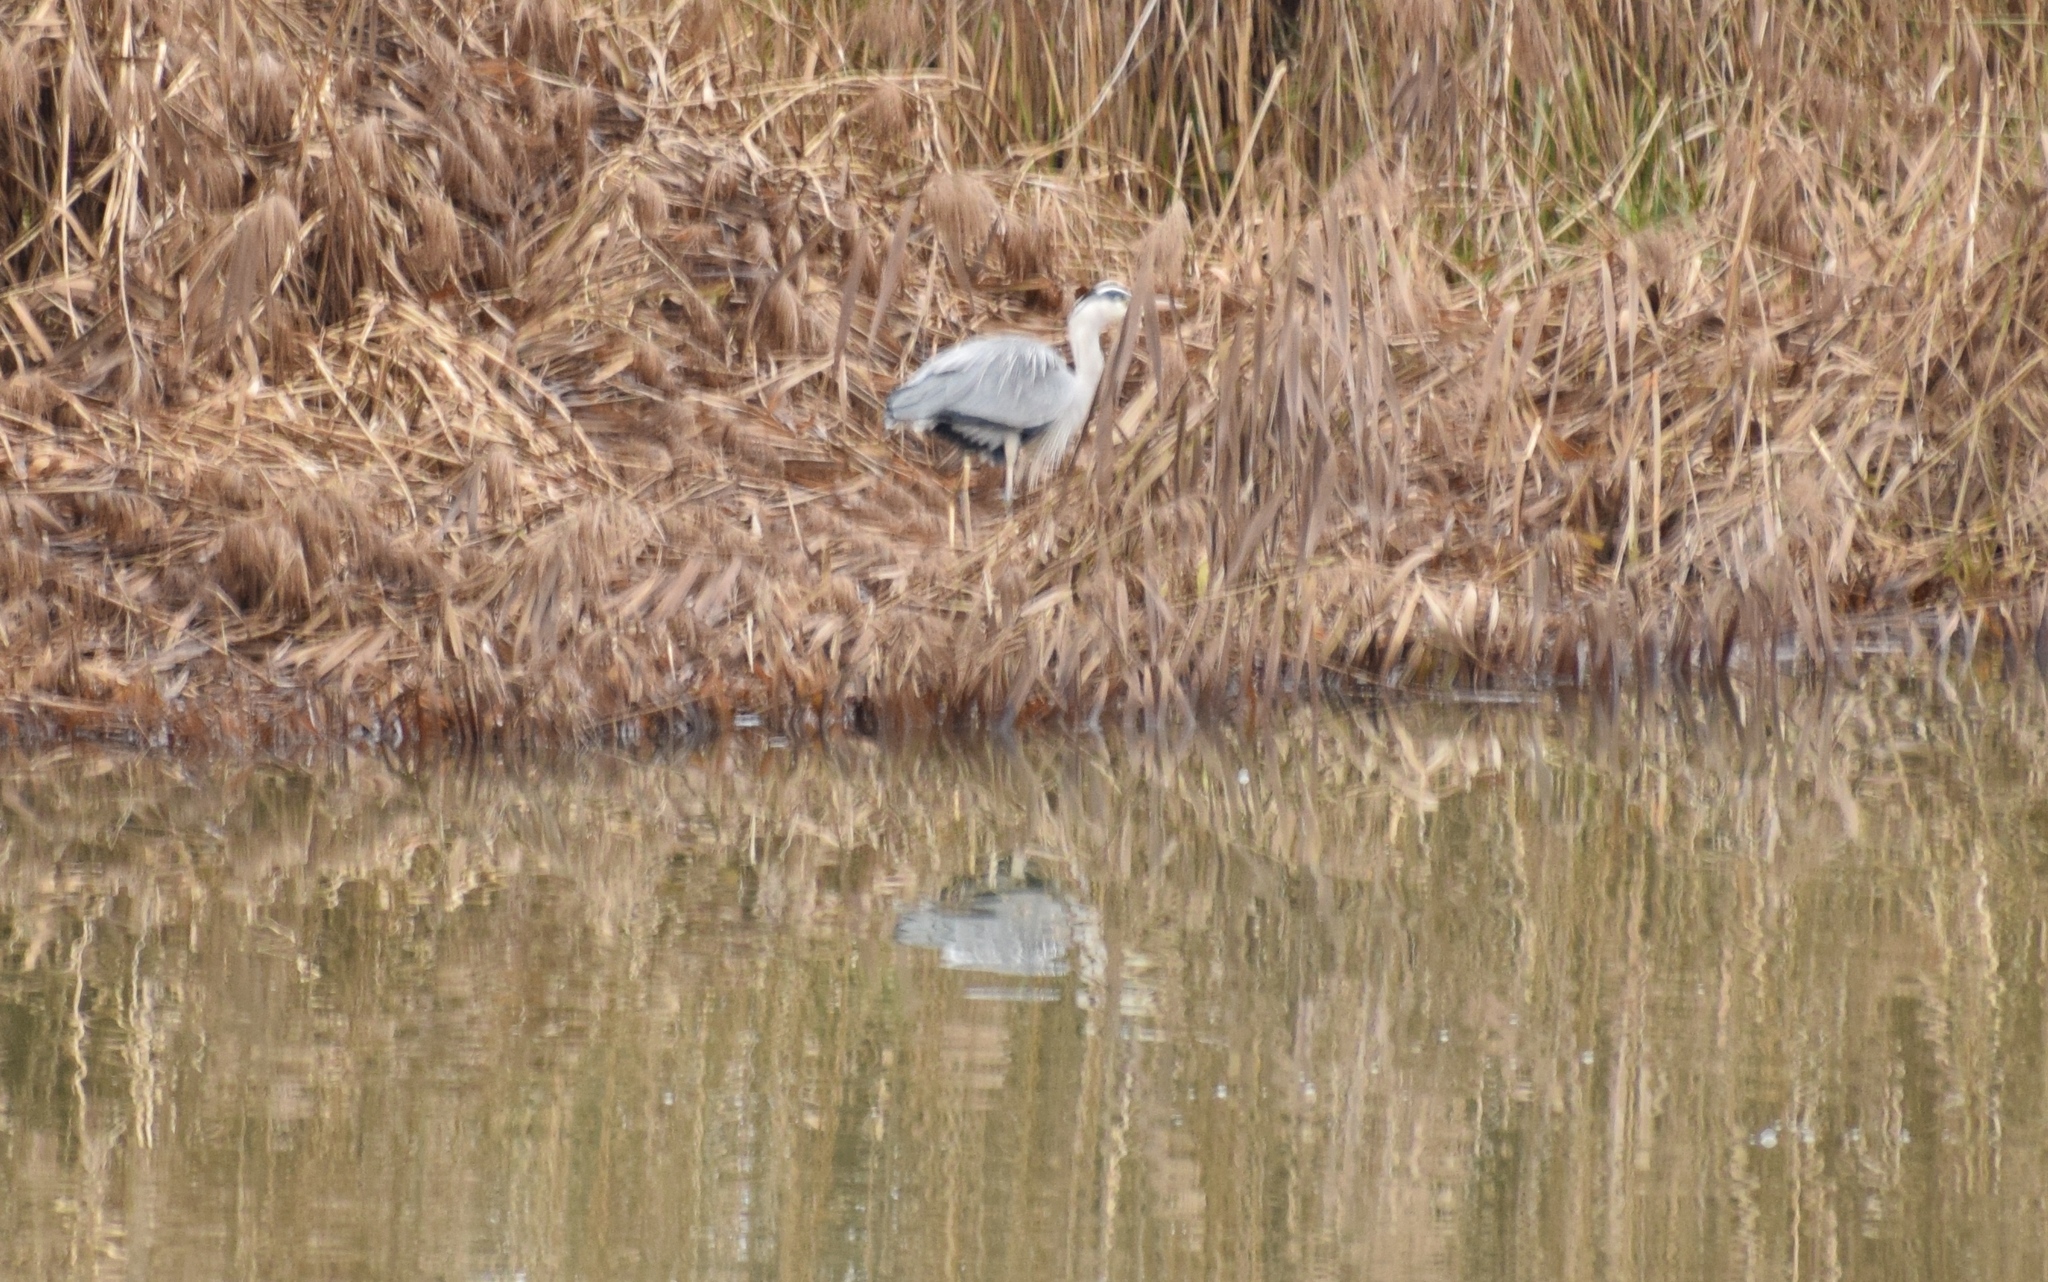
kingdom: Animalia
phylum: Chordata
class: Aves
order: Pelecaniformes
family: Ardeidae
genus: Ardea
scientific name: Ardea cinerea
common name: Grey heron
